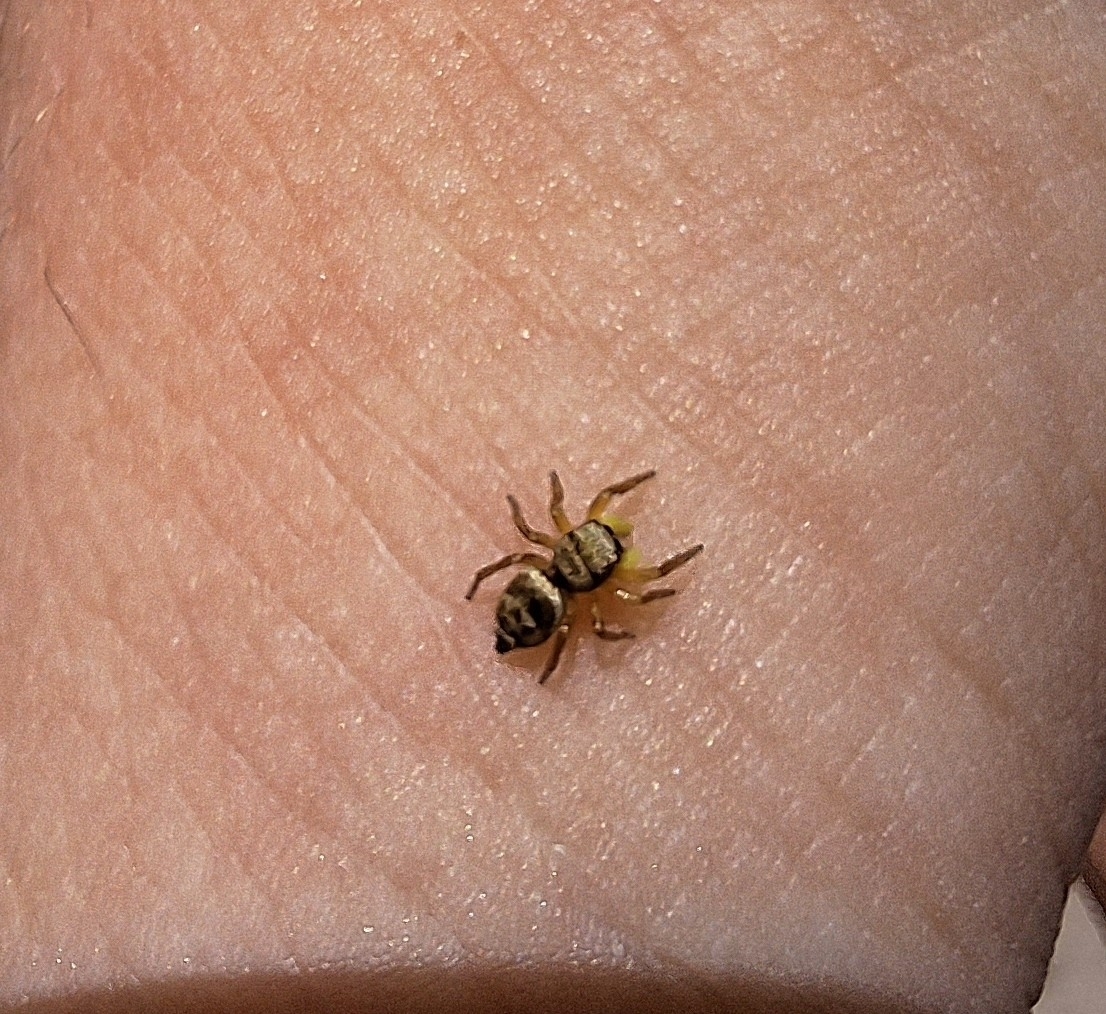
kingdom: Animalia
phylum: Arthropoda
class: Arachnida
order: Araneae
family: Salticidae
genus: Heliophanus
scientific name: Heliophanus tribulosus
